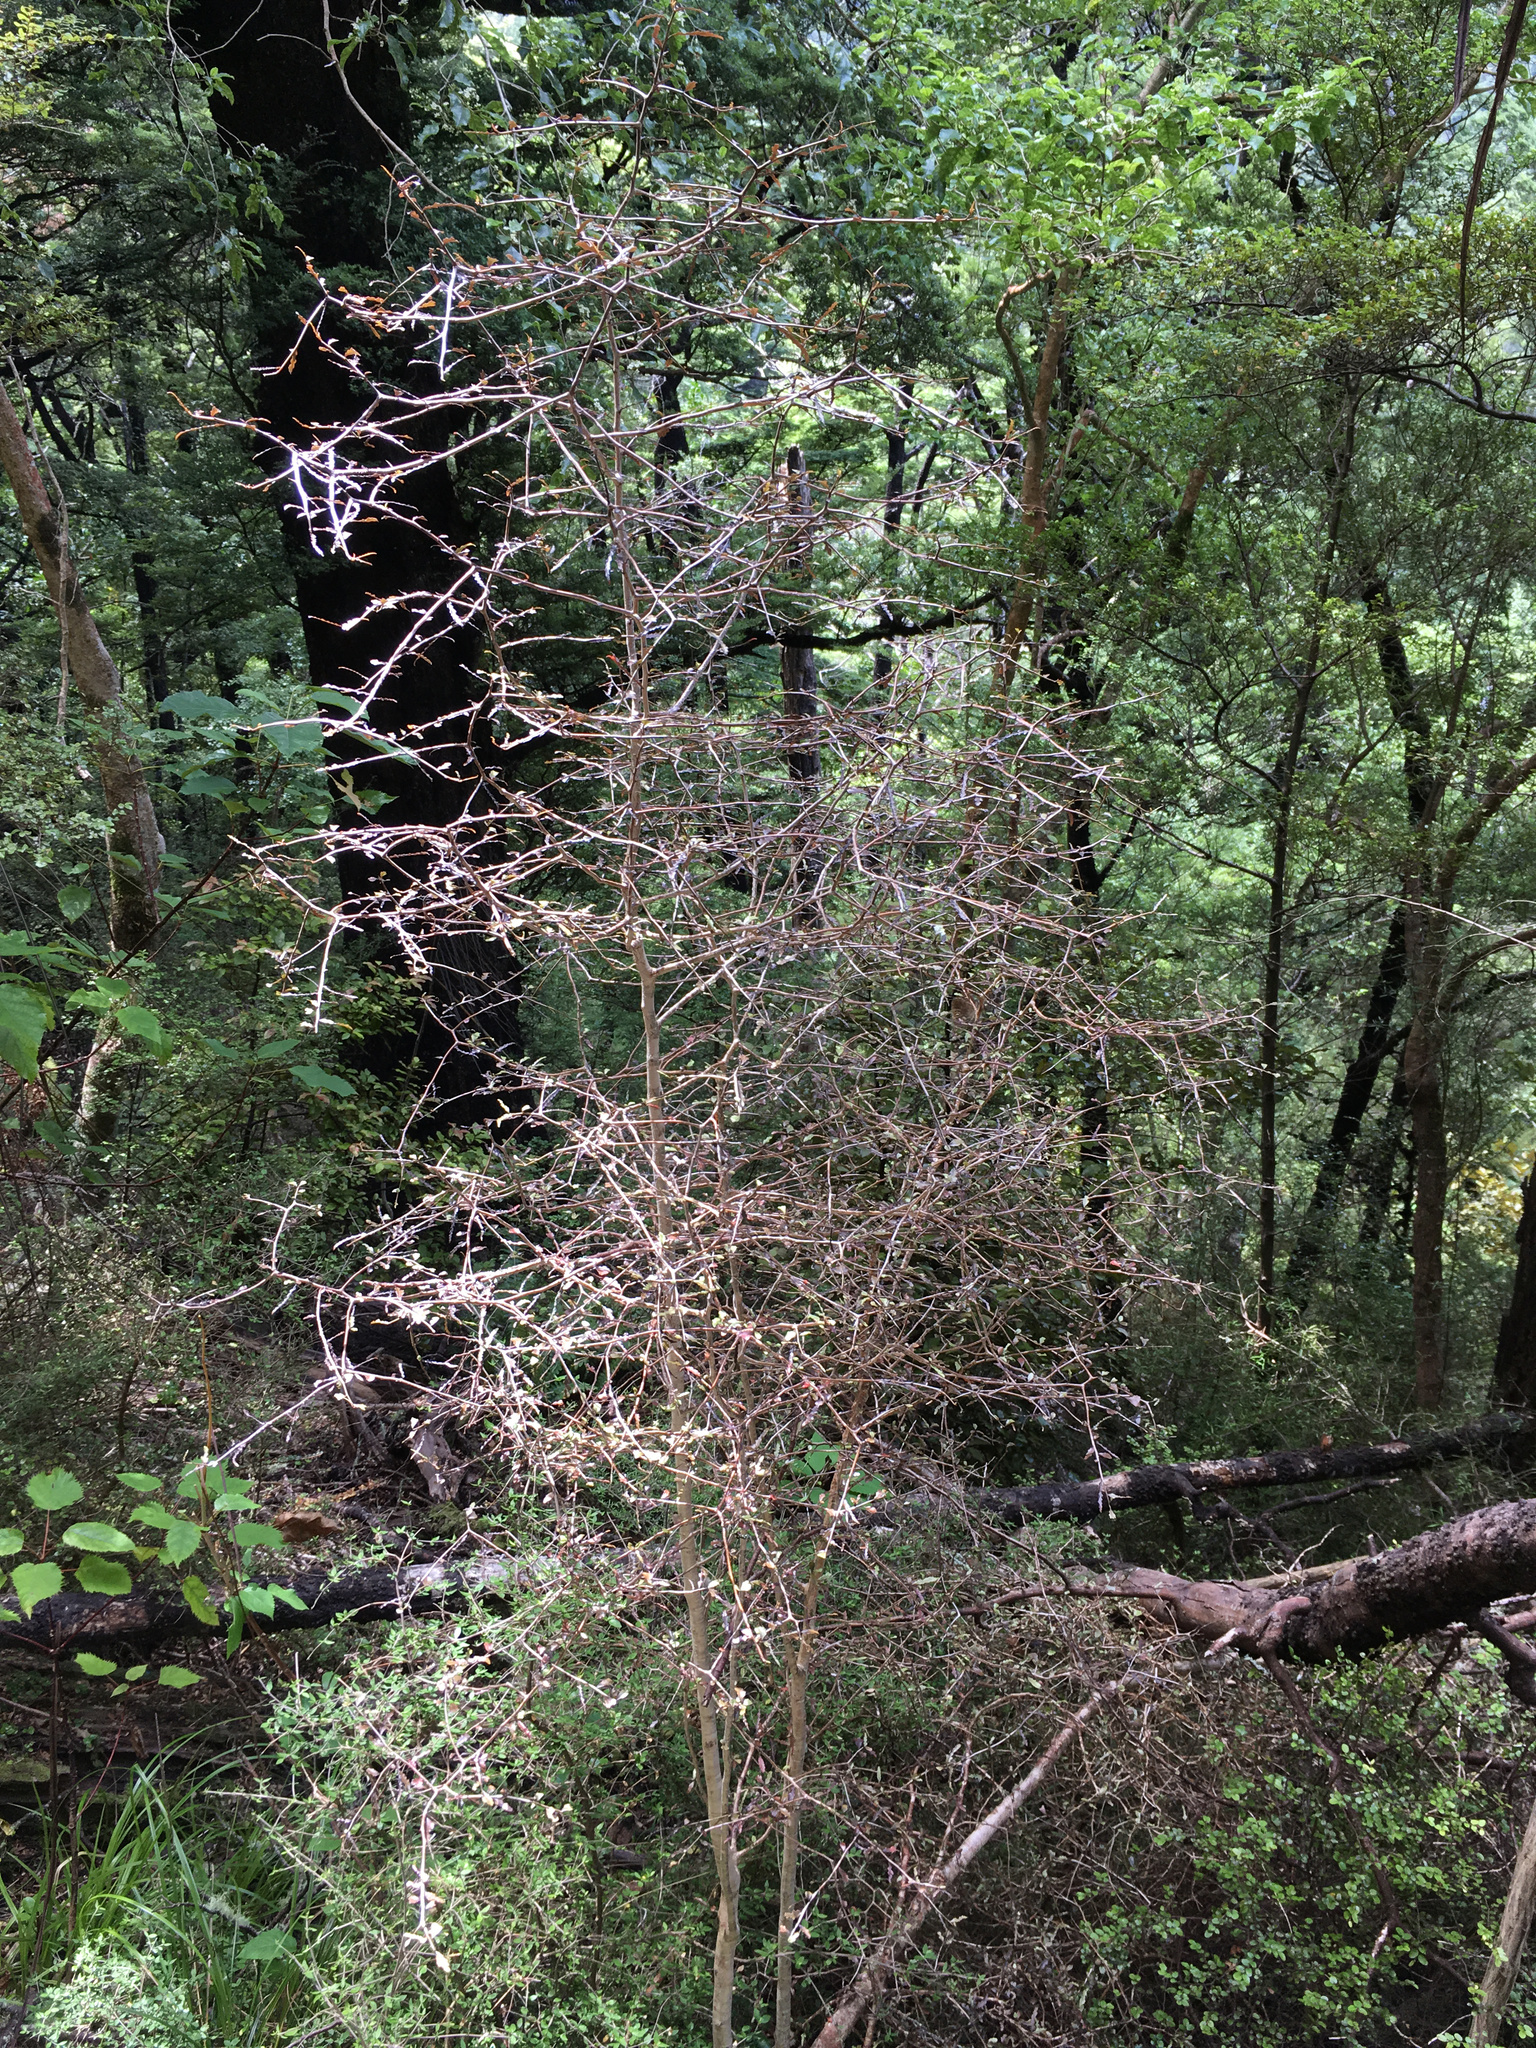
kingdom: Plantae
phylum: Tracheophyta
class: Magnoliopsida
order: Oxalidales
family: Elaeocarpaceae
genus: Elaeocarpus
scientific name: Elaeocarpus hookerianus
